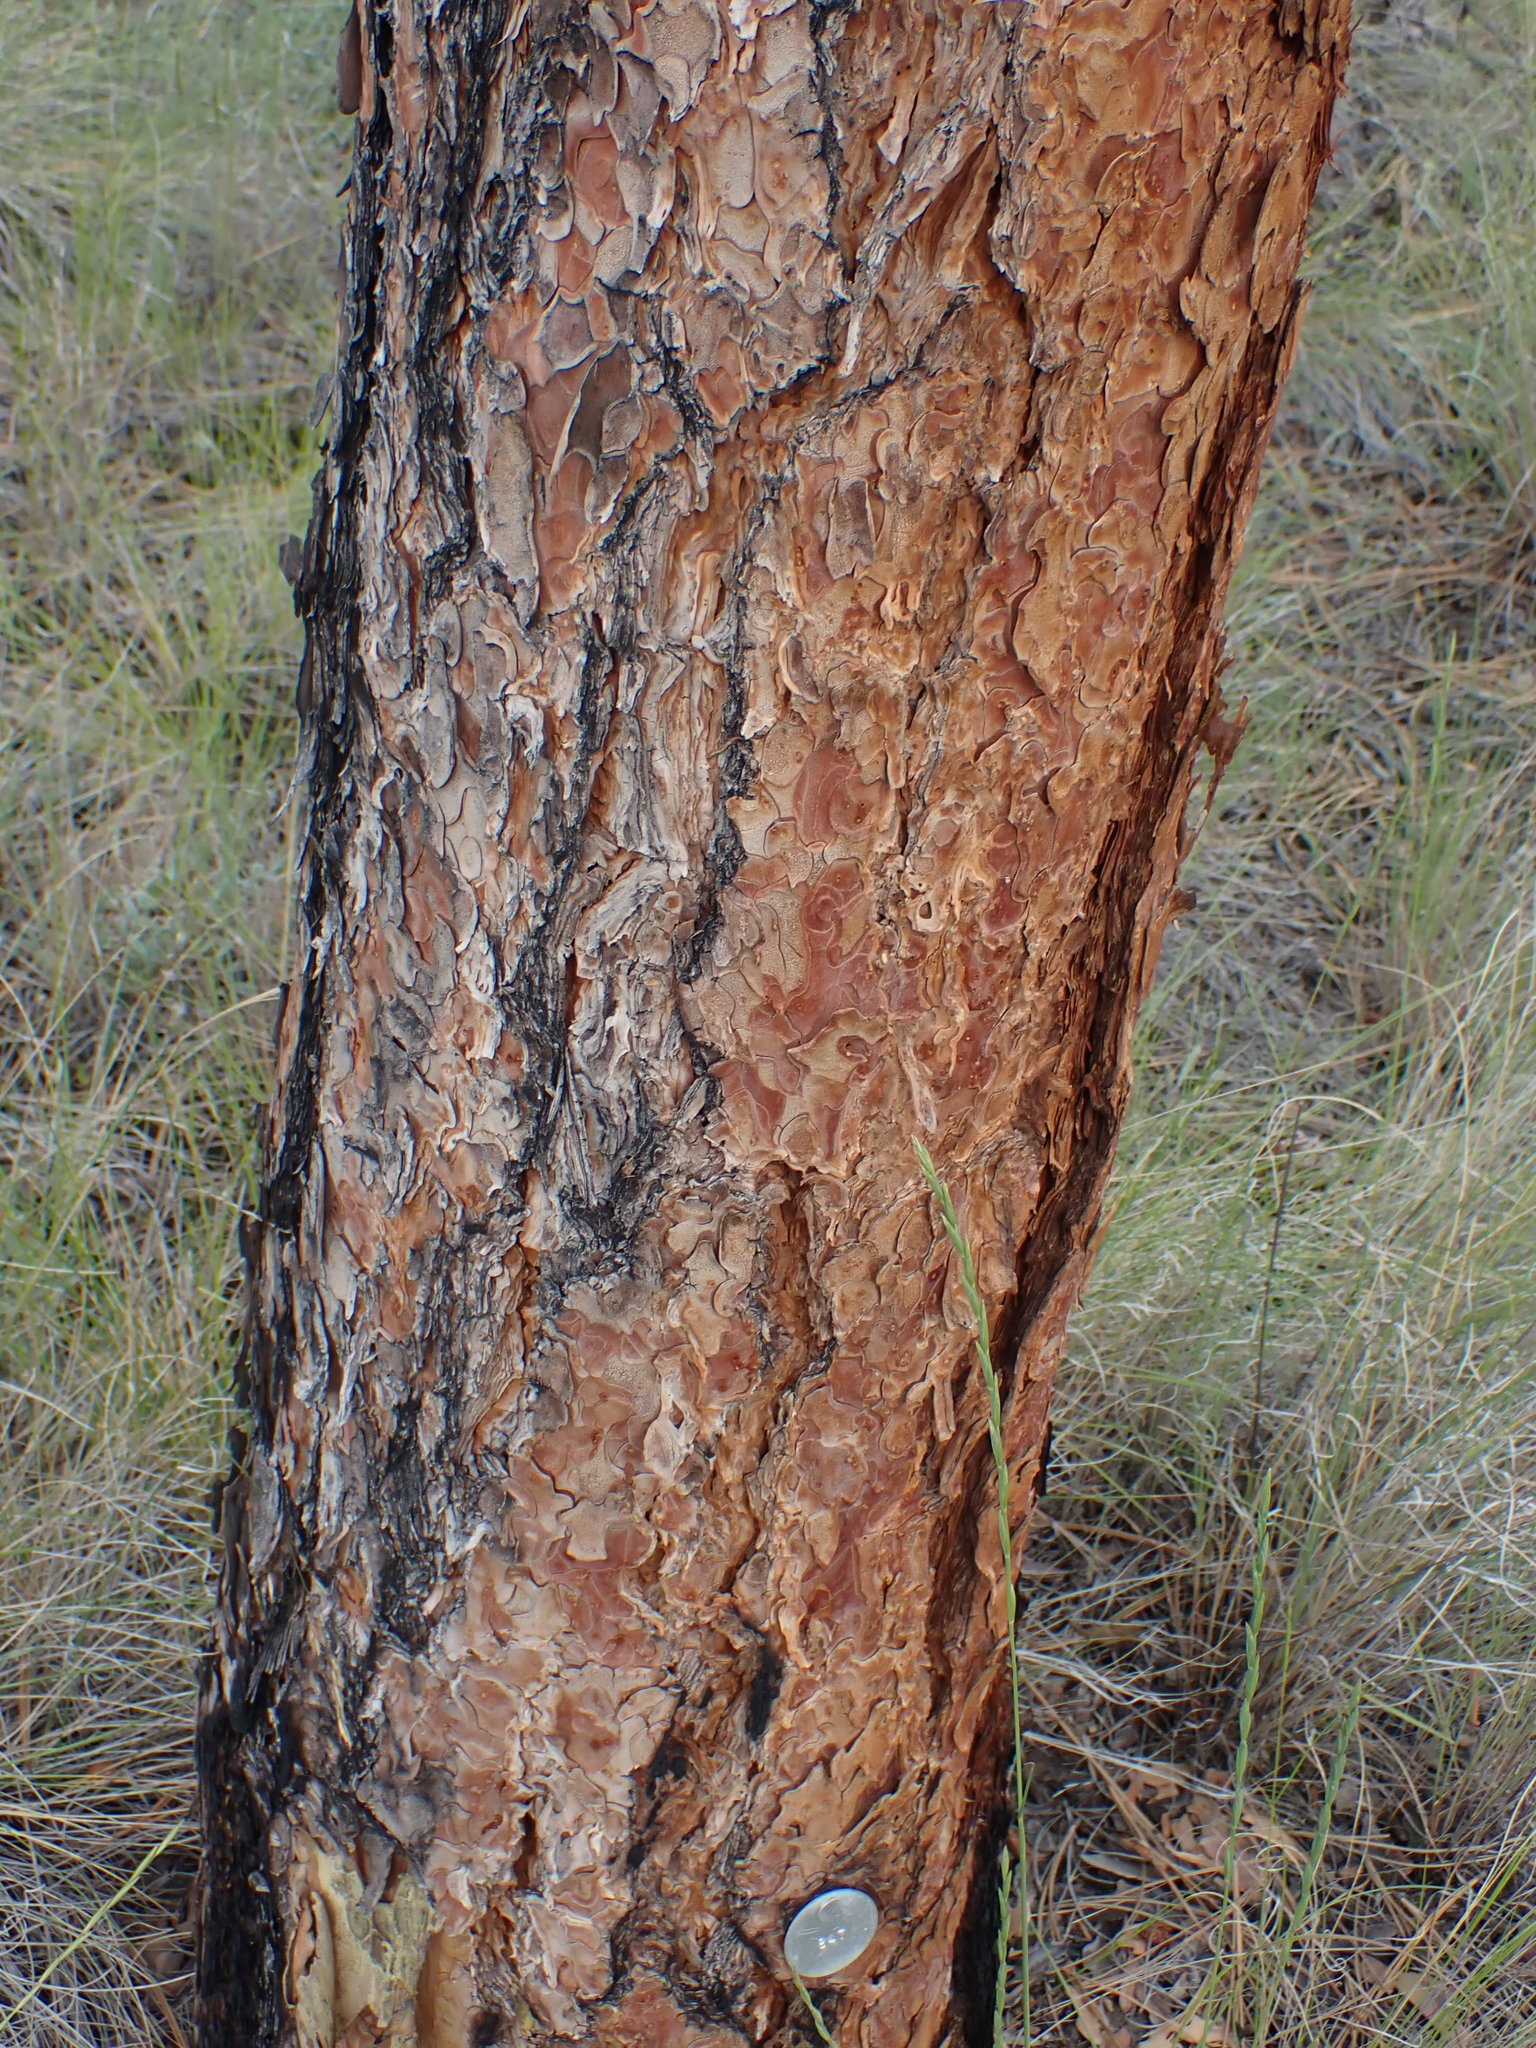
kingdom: Plantae
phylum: Tracheophyta
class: Pinopsida
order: Pinales
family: Pinaceae
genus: Pinus
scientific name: Pinus ponderosa
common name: Western yellow-pine
